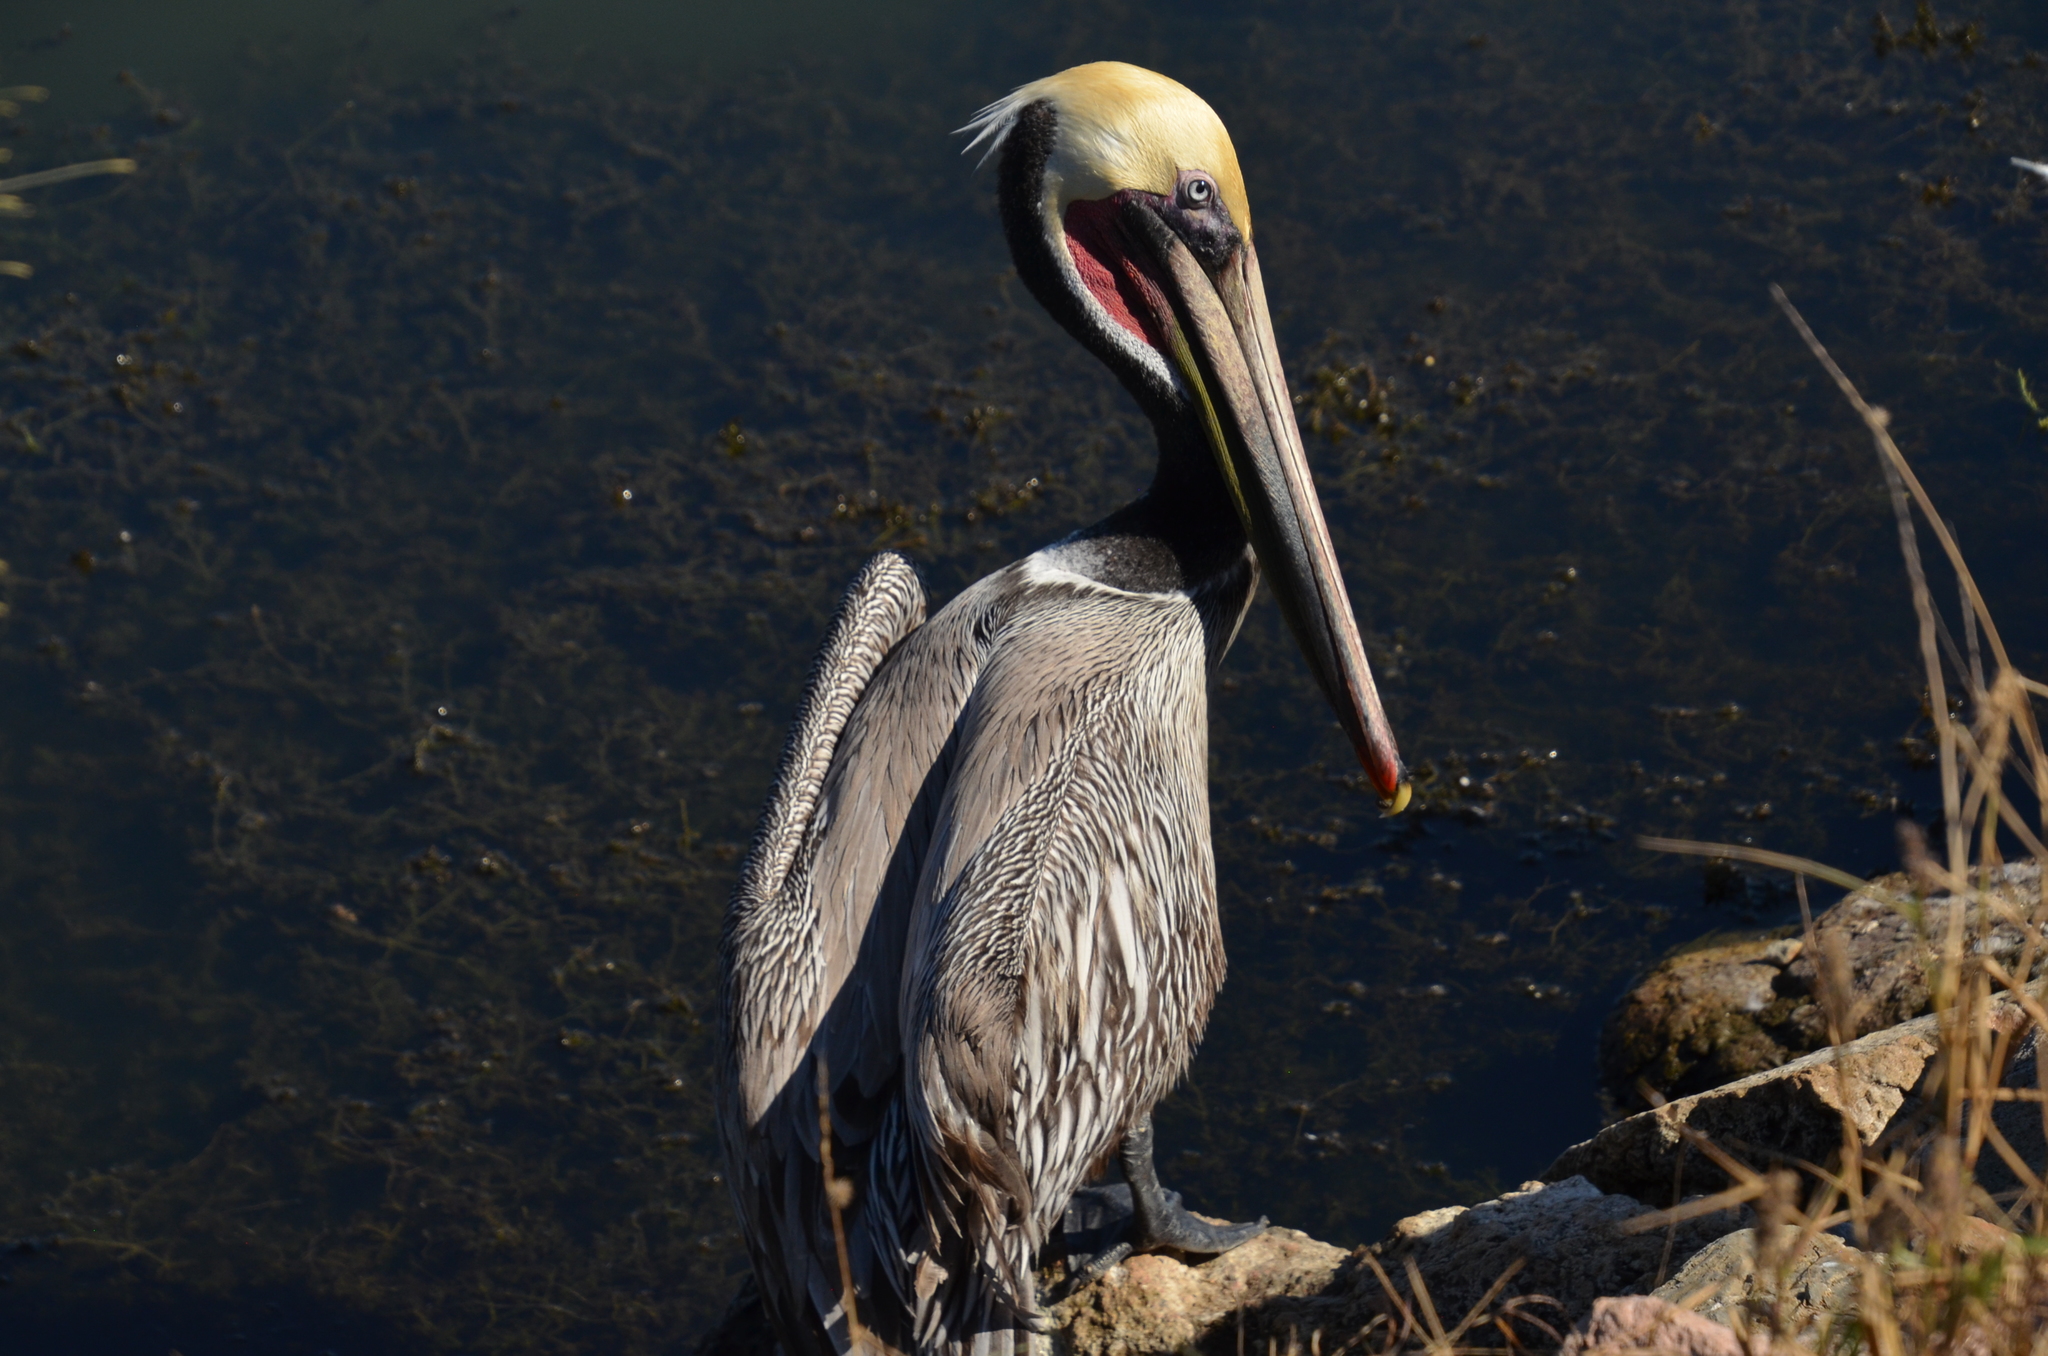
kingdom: Animalia
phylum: Chordata
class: Aves
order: Pelecaniformes
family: Pelecanidae
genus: Pelecanus
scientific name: Pelecanus occidentalis
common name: Brown pelican
